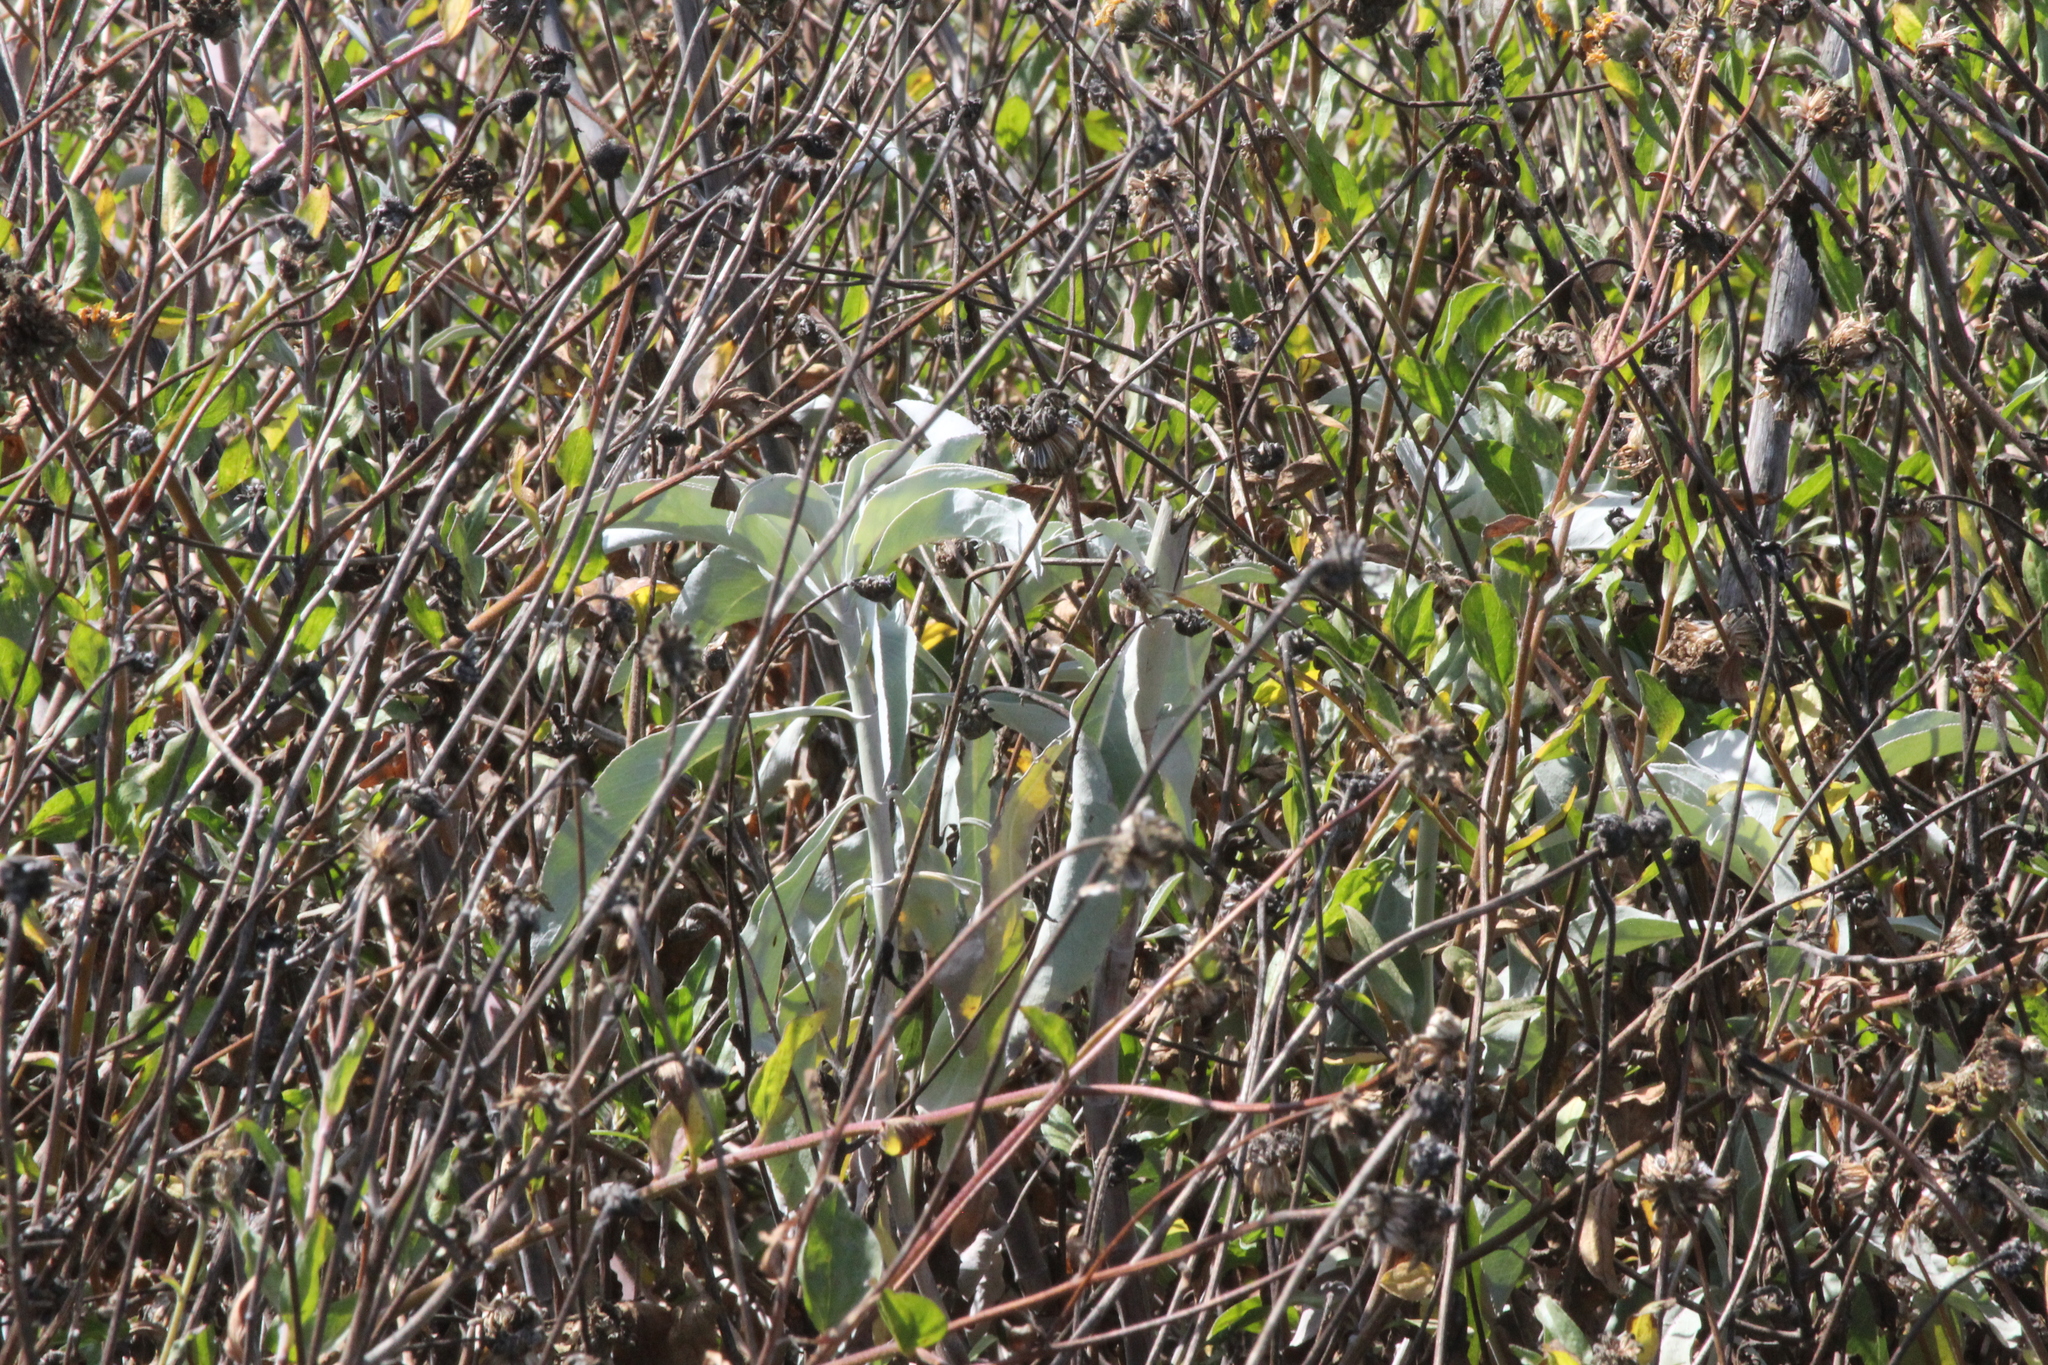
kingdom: Plantae
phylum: Tracheophyta
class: Magnoliopsida
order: Lamiales
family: Lamiaceae
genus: Salvia
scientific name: Salvia apiana
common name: White sage
